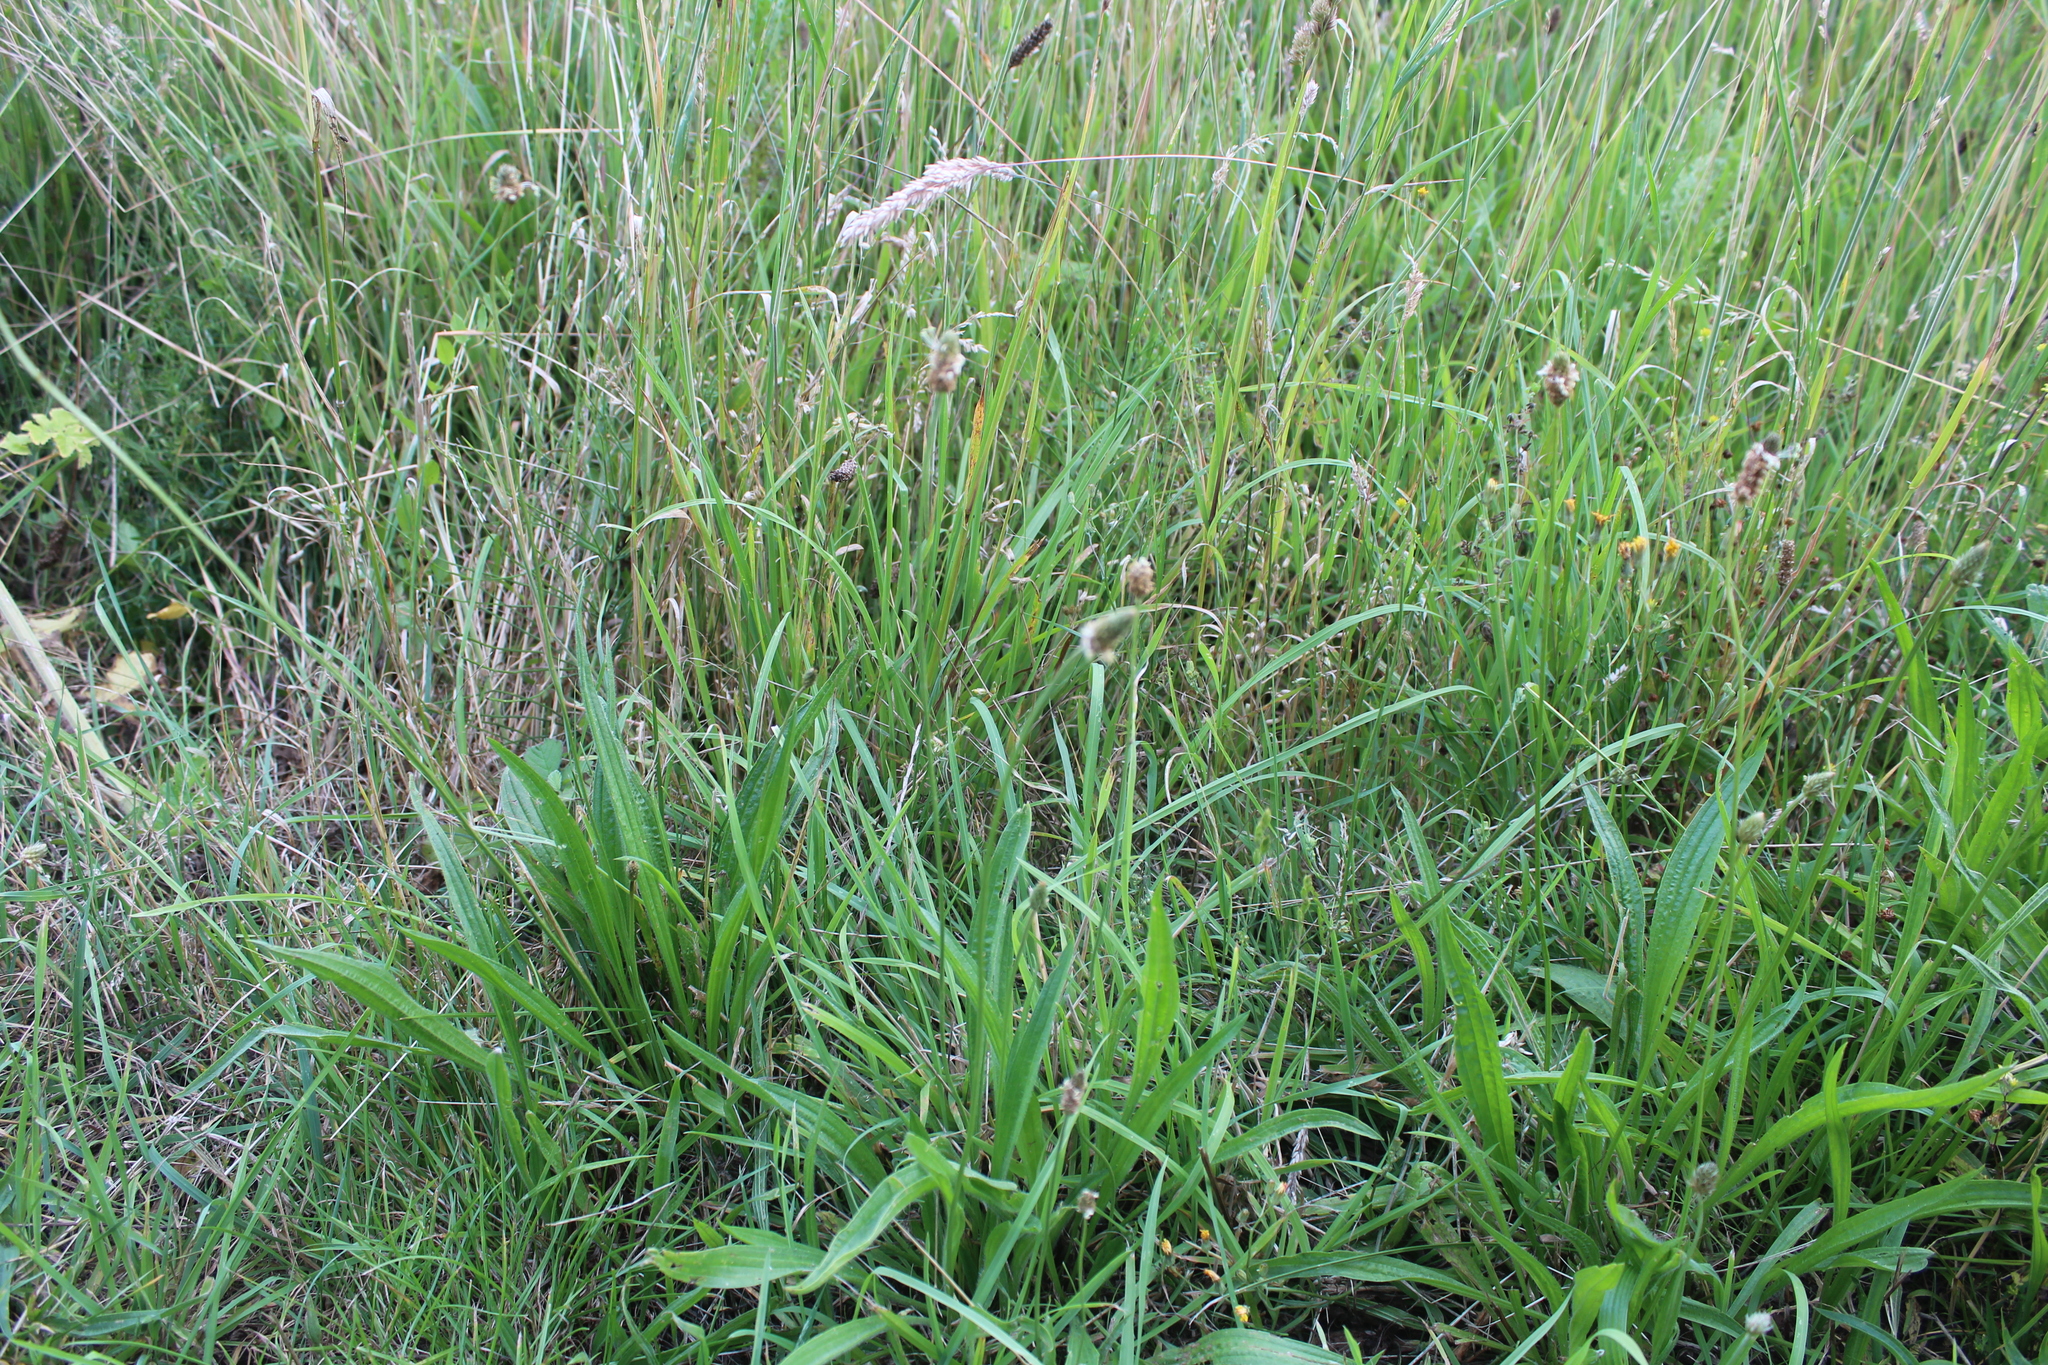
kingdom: Plantae
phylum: Tracheophyta
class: Magnoliopsida
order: Lamiales
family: Plantaginaceae
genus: Plantago
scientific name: Plantago lanceolata
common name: Ribwort plantain
